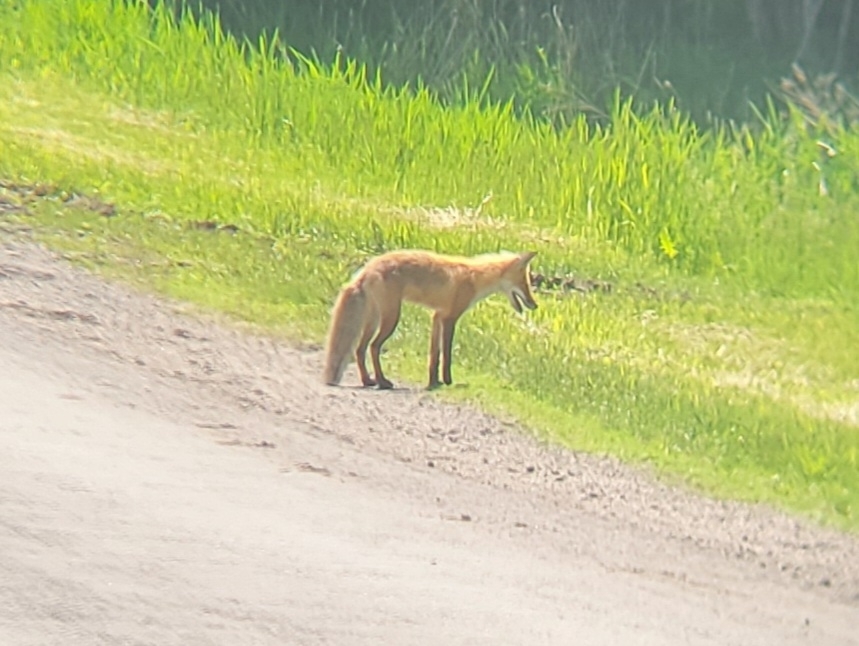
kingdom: Animalia
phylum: Chordata
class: Mammalia
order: Carnivora
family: Canidae
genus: Vulpes
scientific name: Vulpes vulpes
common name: Red fox
